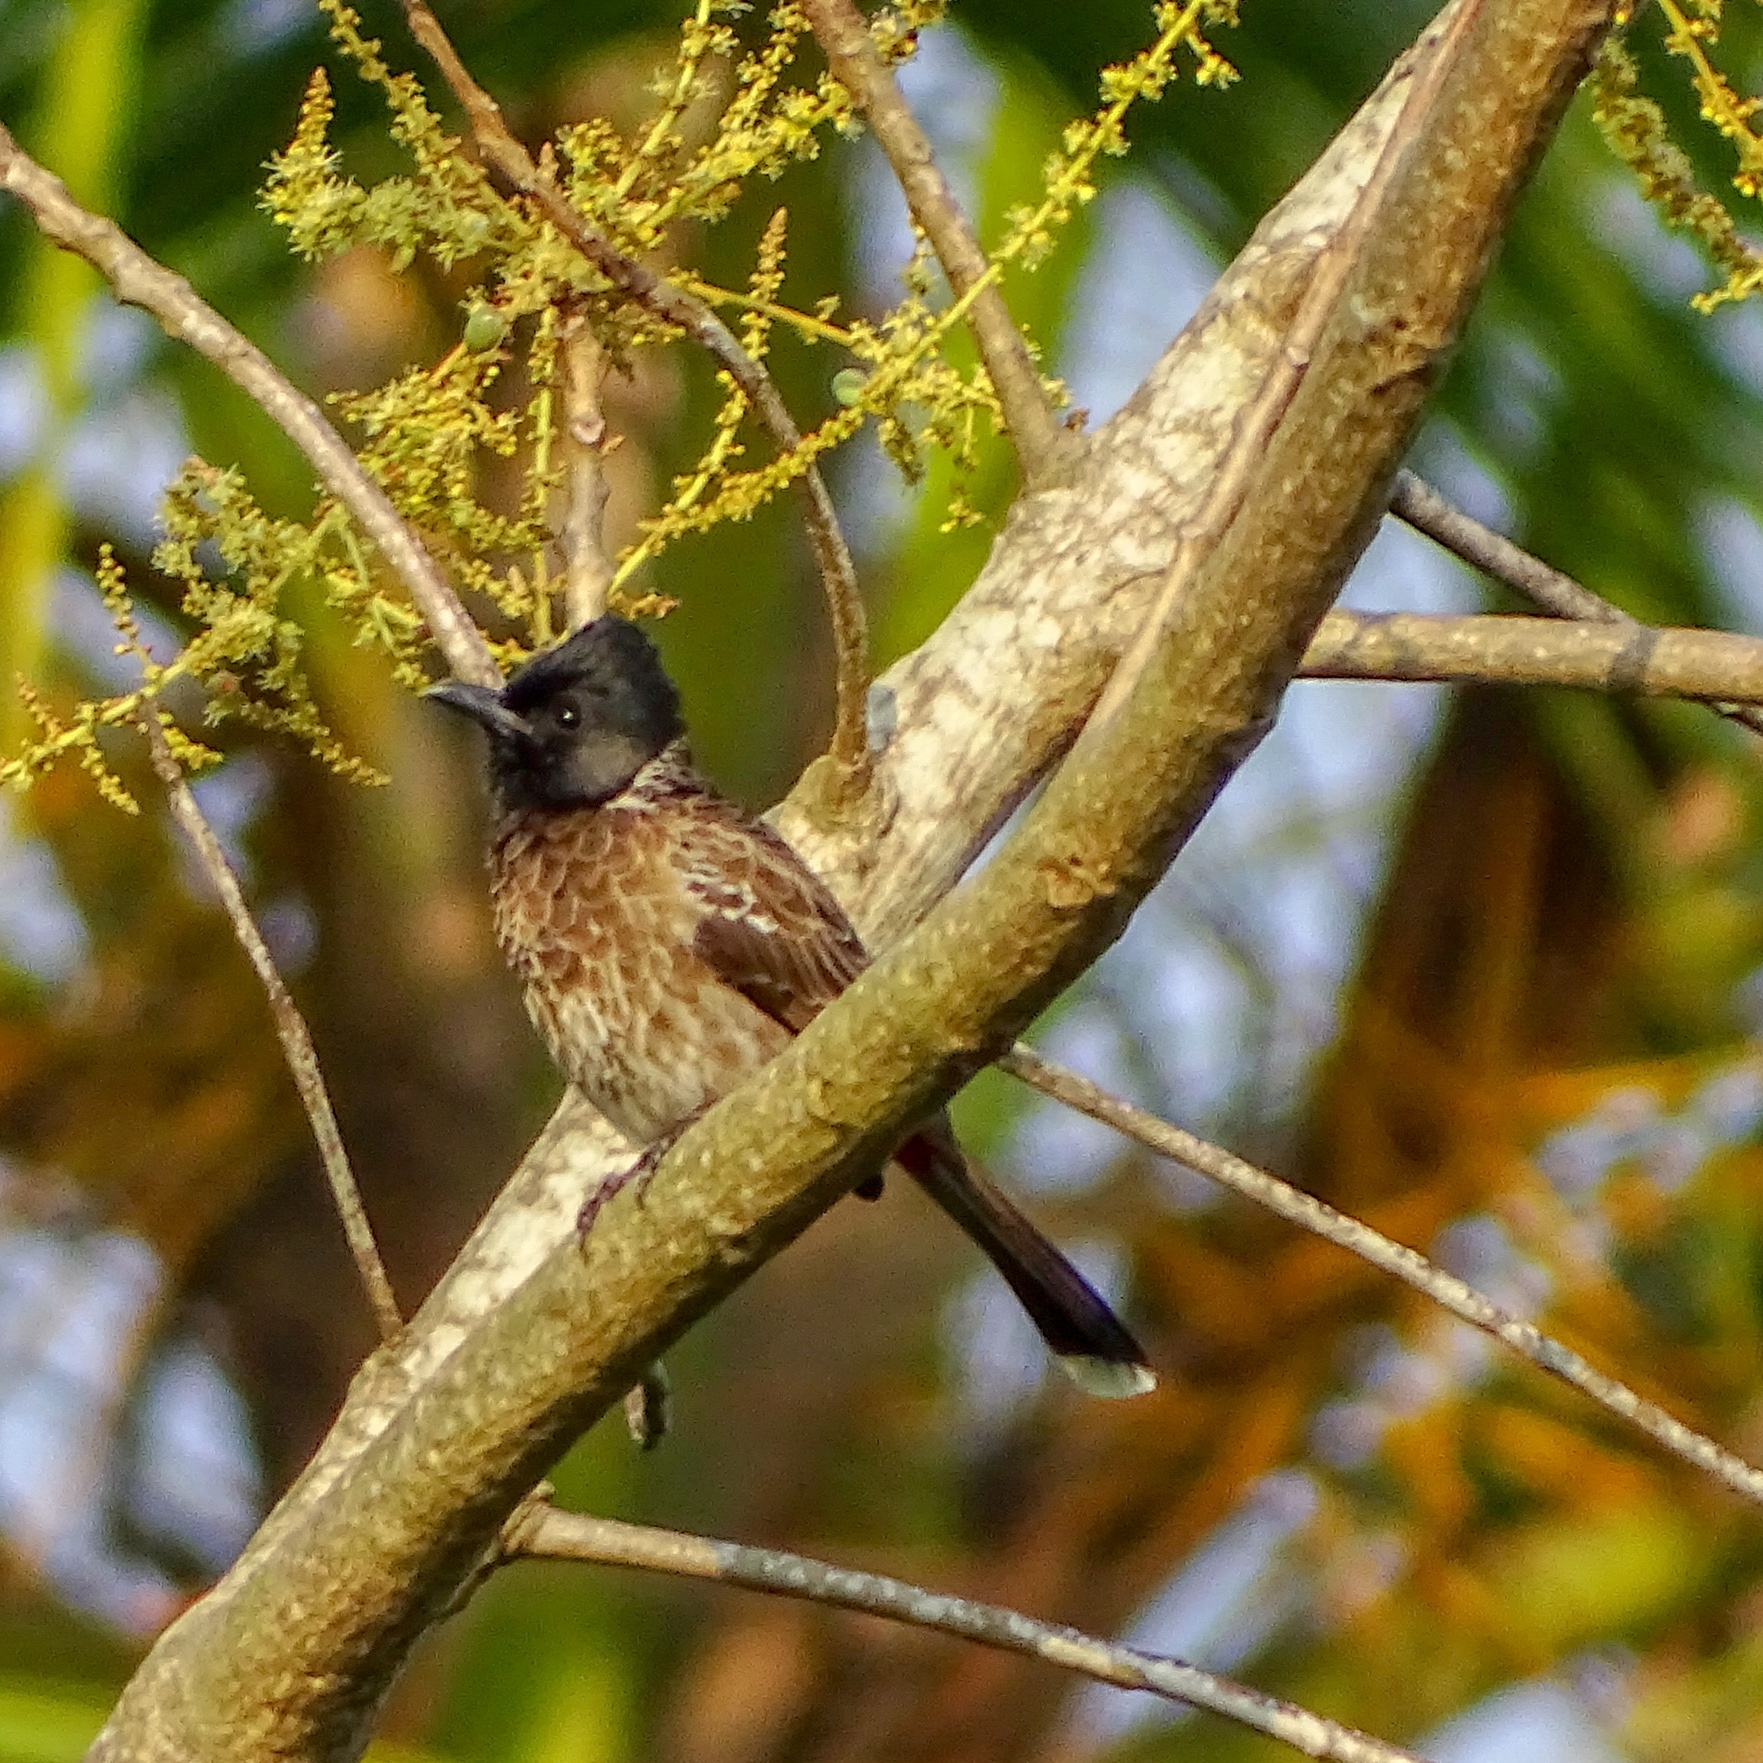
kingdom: Animalia
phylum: Chordata
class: Aves
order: Passeriformes
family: Pycnonotidae
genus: Pycnonotus
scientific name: Pycnonotus cafer
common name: Red-vented bulbul
